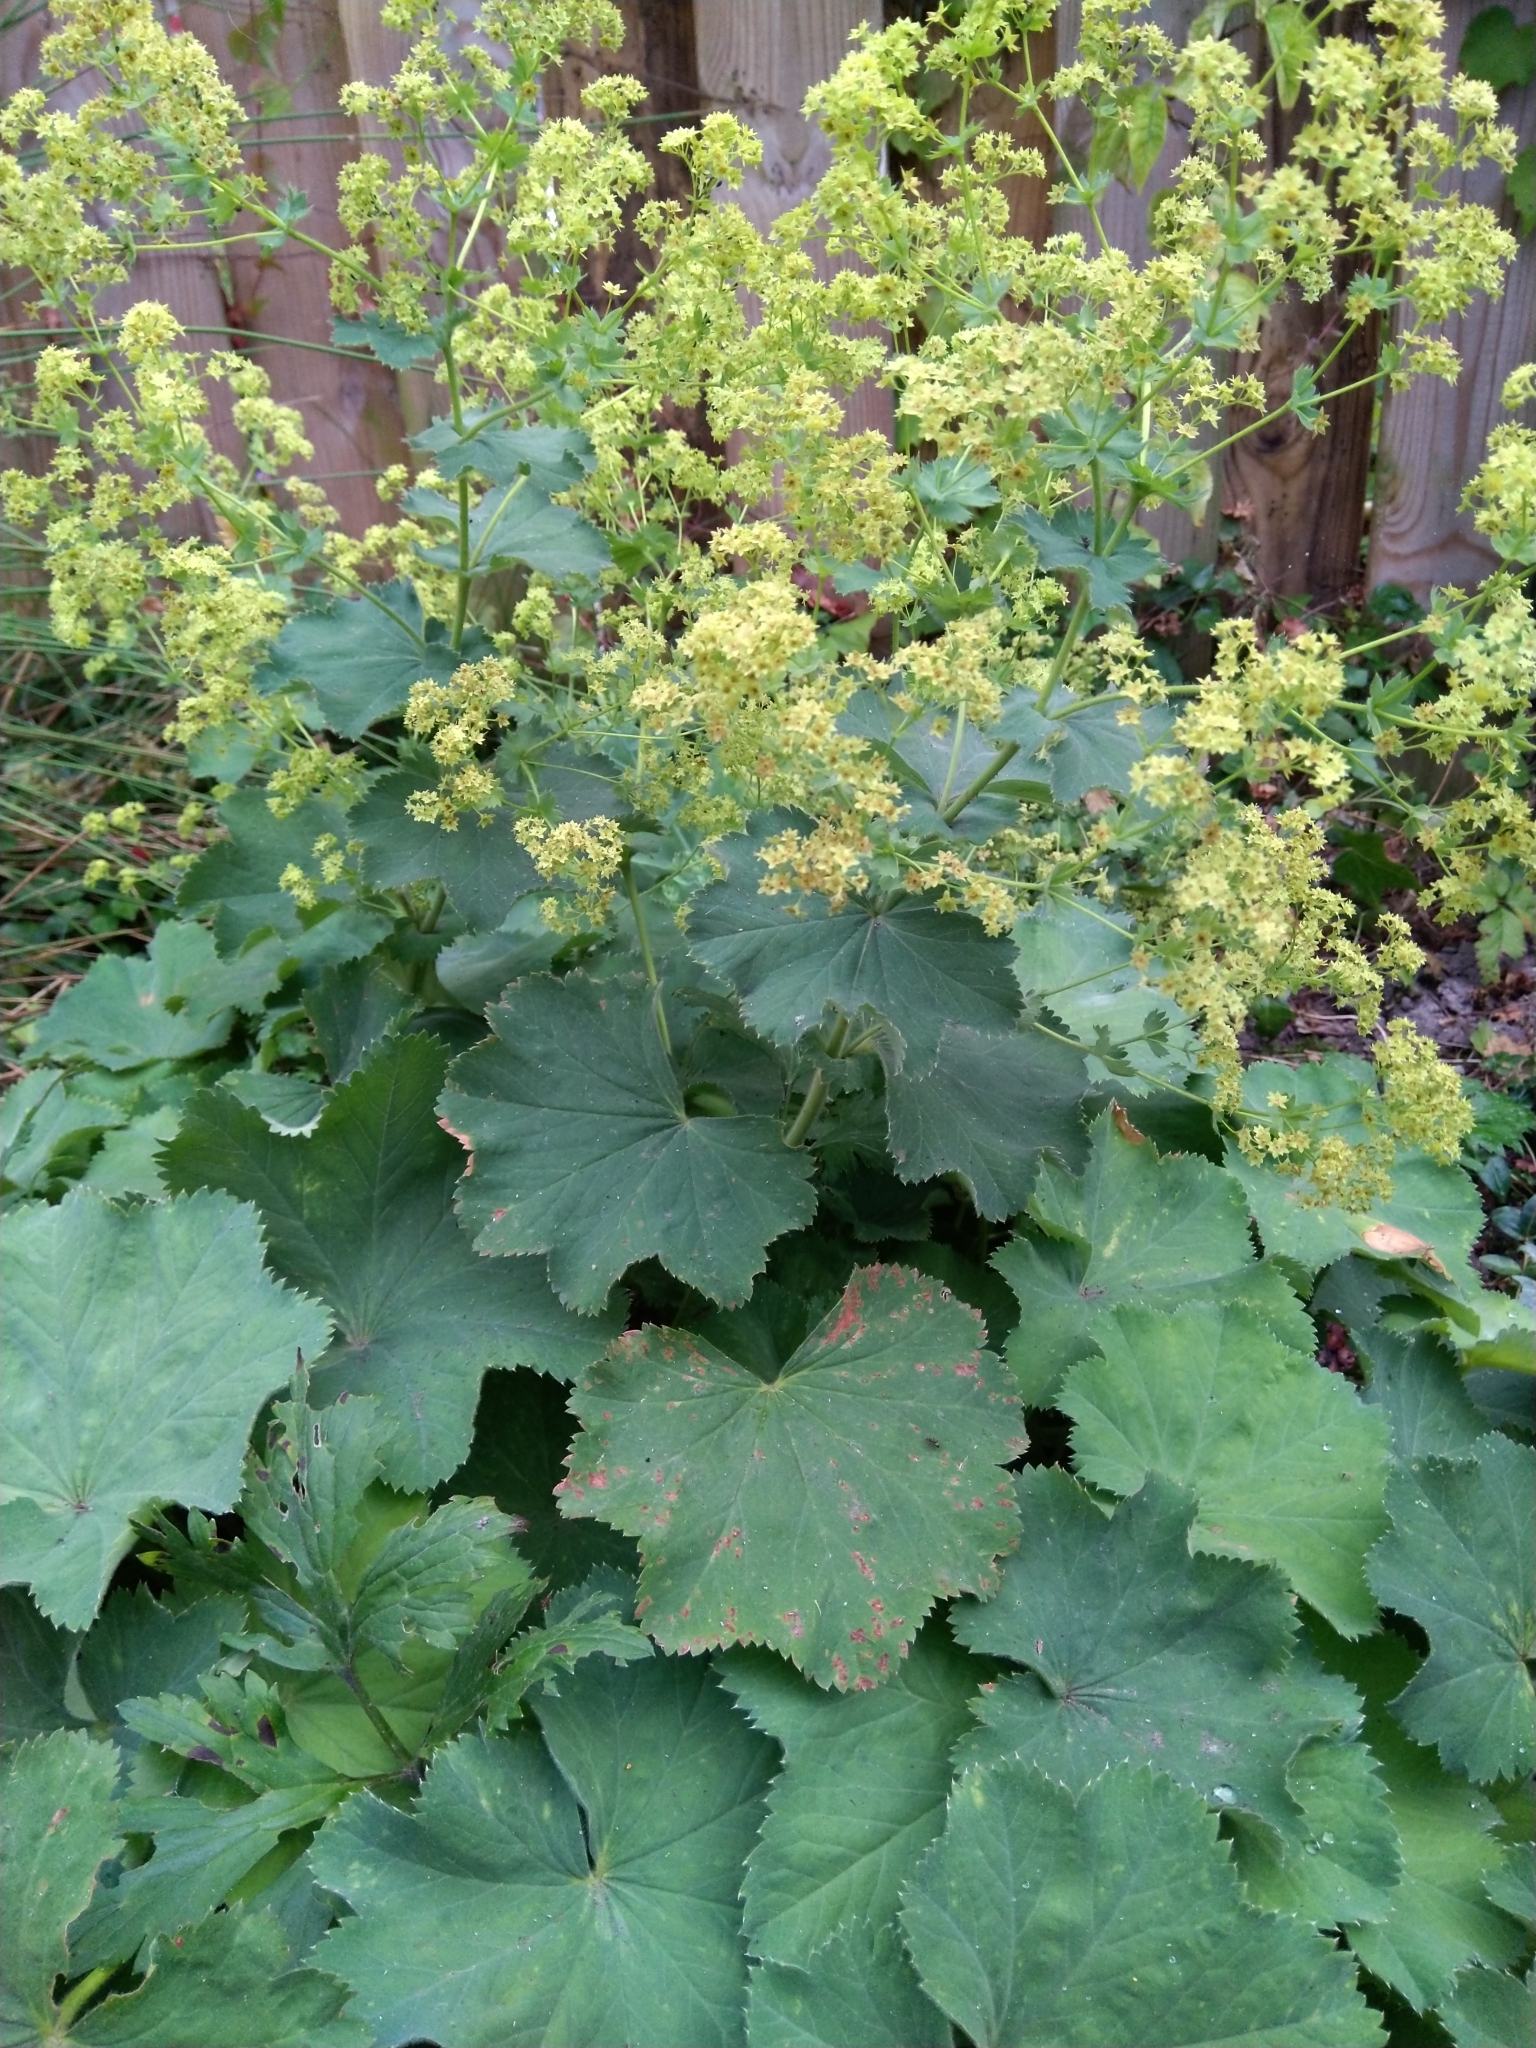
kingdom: Plantae
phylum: Tracheophyta
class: Magnoliopsida
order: Rosales
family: Rosaceae
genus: Alchemilla
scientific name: Alchemilla mollis
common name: Lady's-mantle
